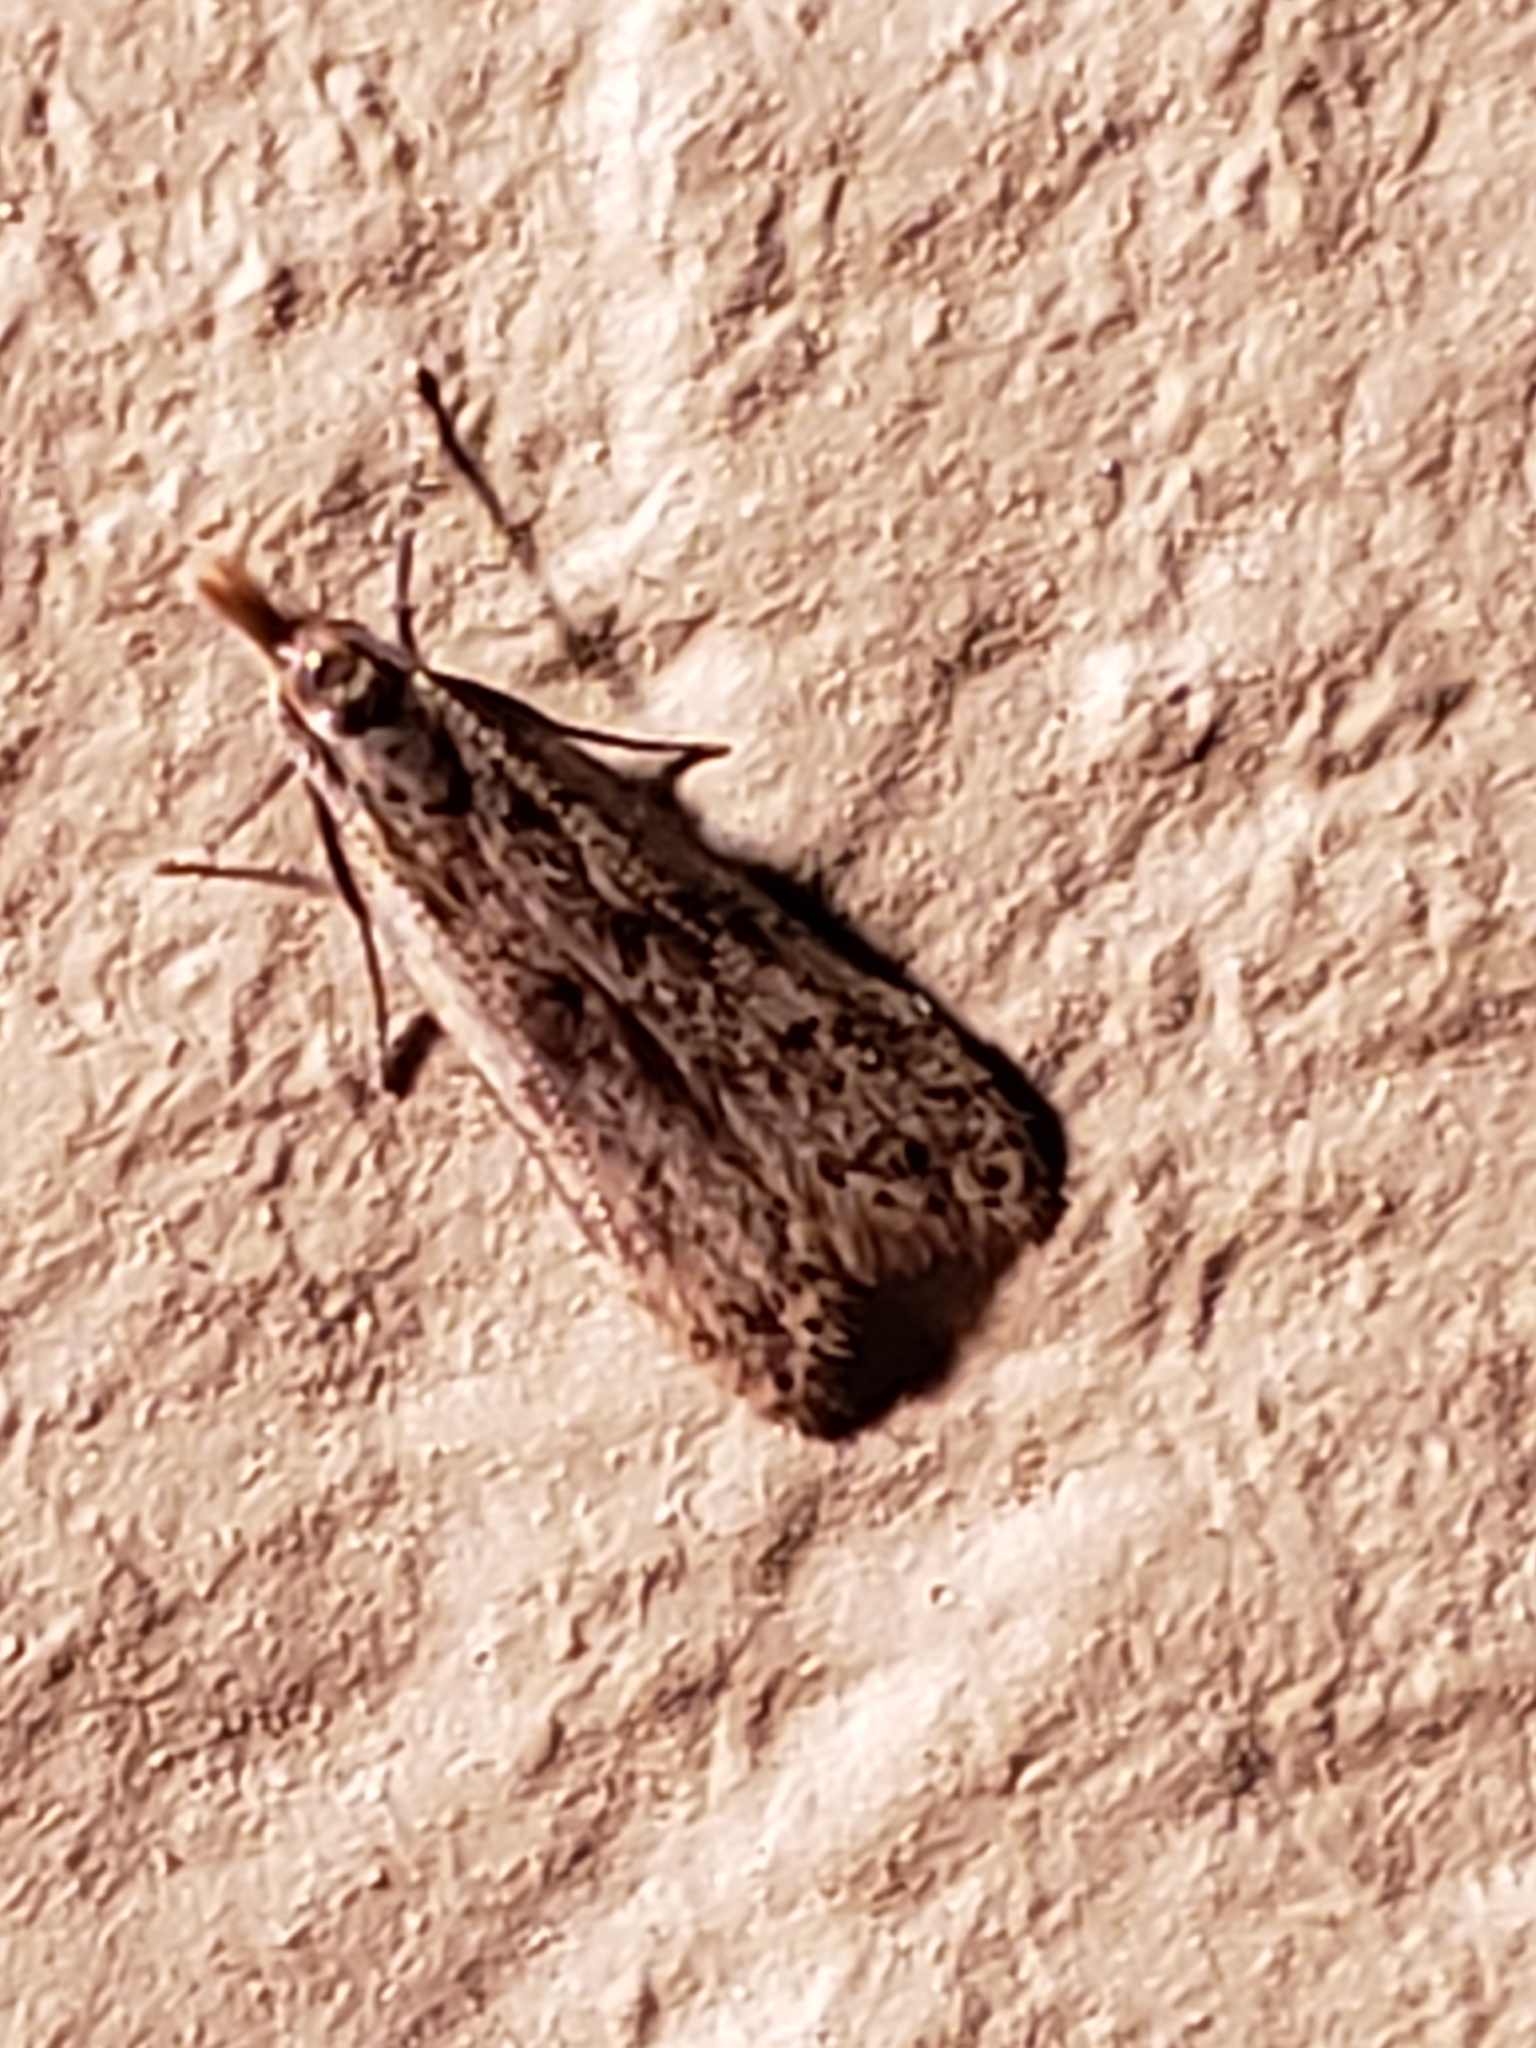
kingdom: Animalia
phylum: Arthropoda
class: Insecta
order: Lepidoptera
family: Gelechiidae
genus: Dichomeris
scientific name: Dichomeris punctipennella
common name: Many-spotted dichomeris moth
